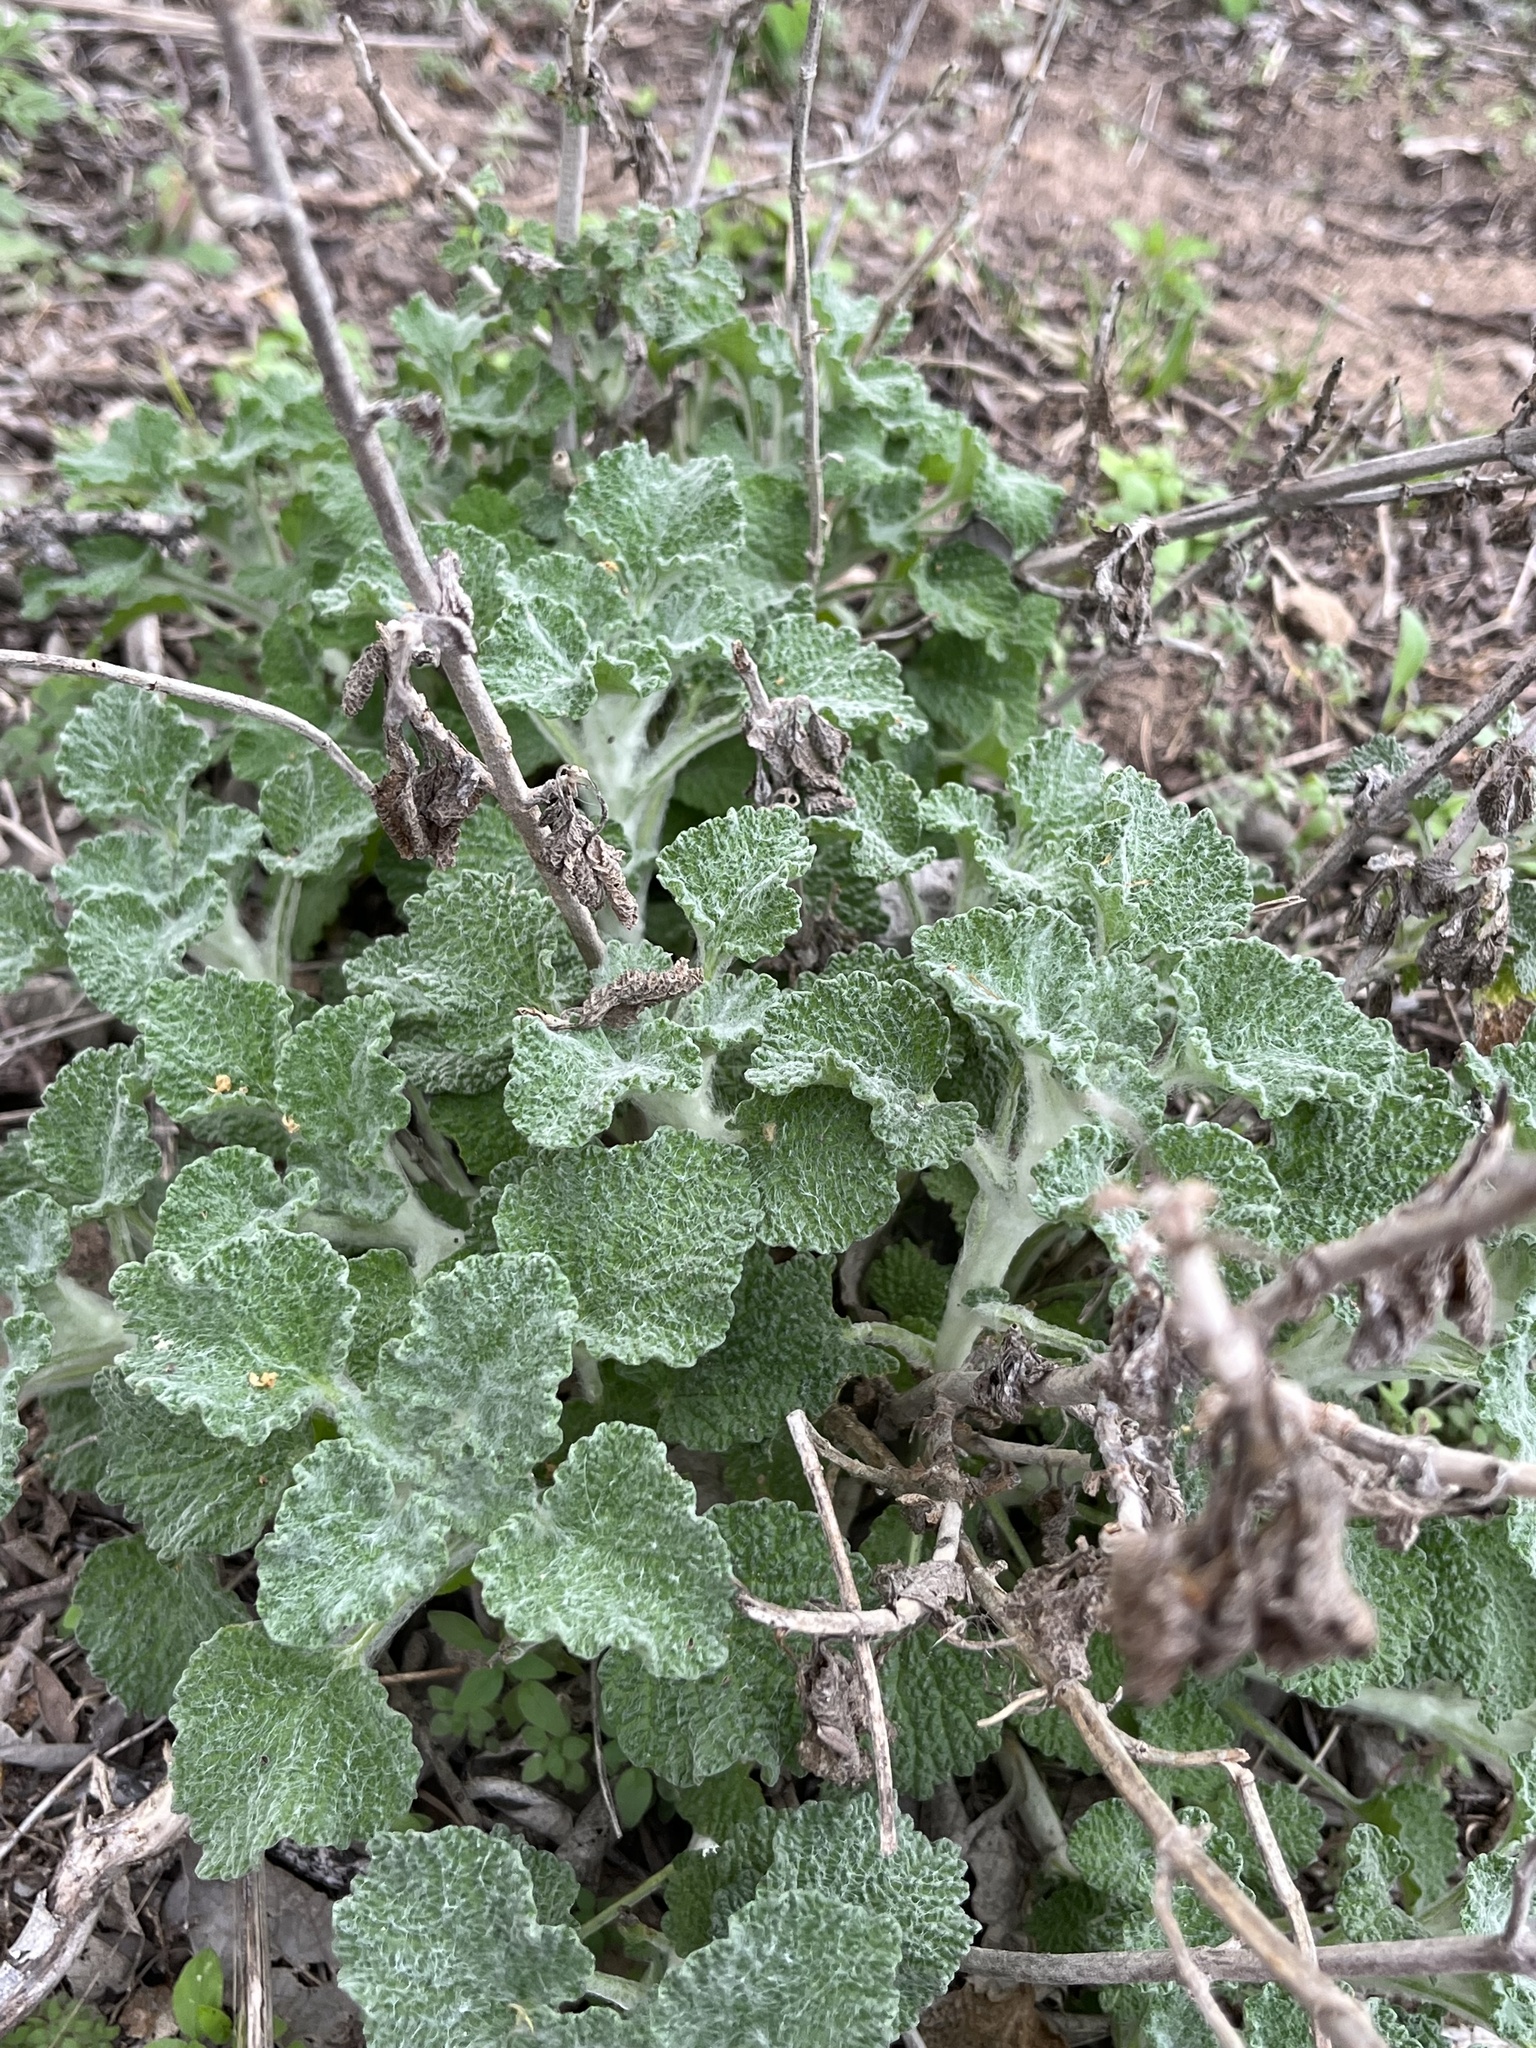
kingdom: Plantae
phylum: Tracheophyta
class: Magnoliopsida
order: Lamiales
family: Lamiaceae
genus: Marrubium
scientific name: Marrubium vulgare
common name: Horehound
